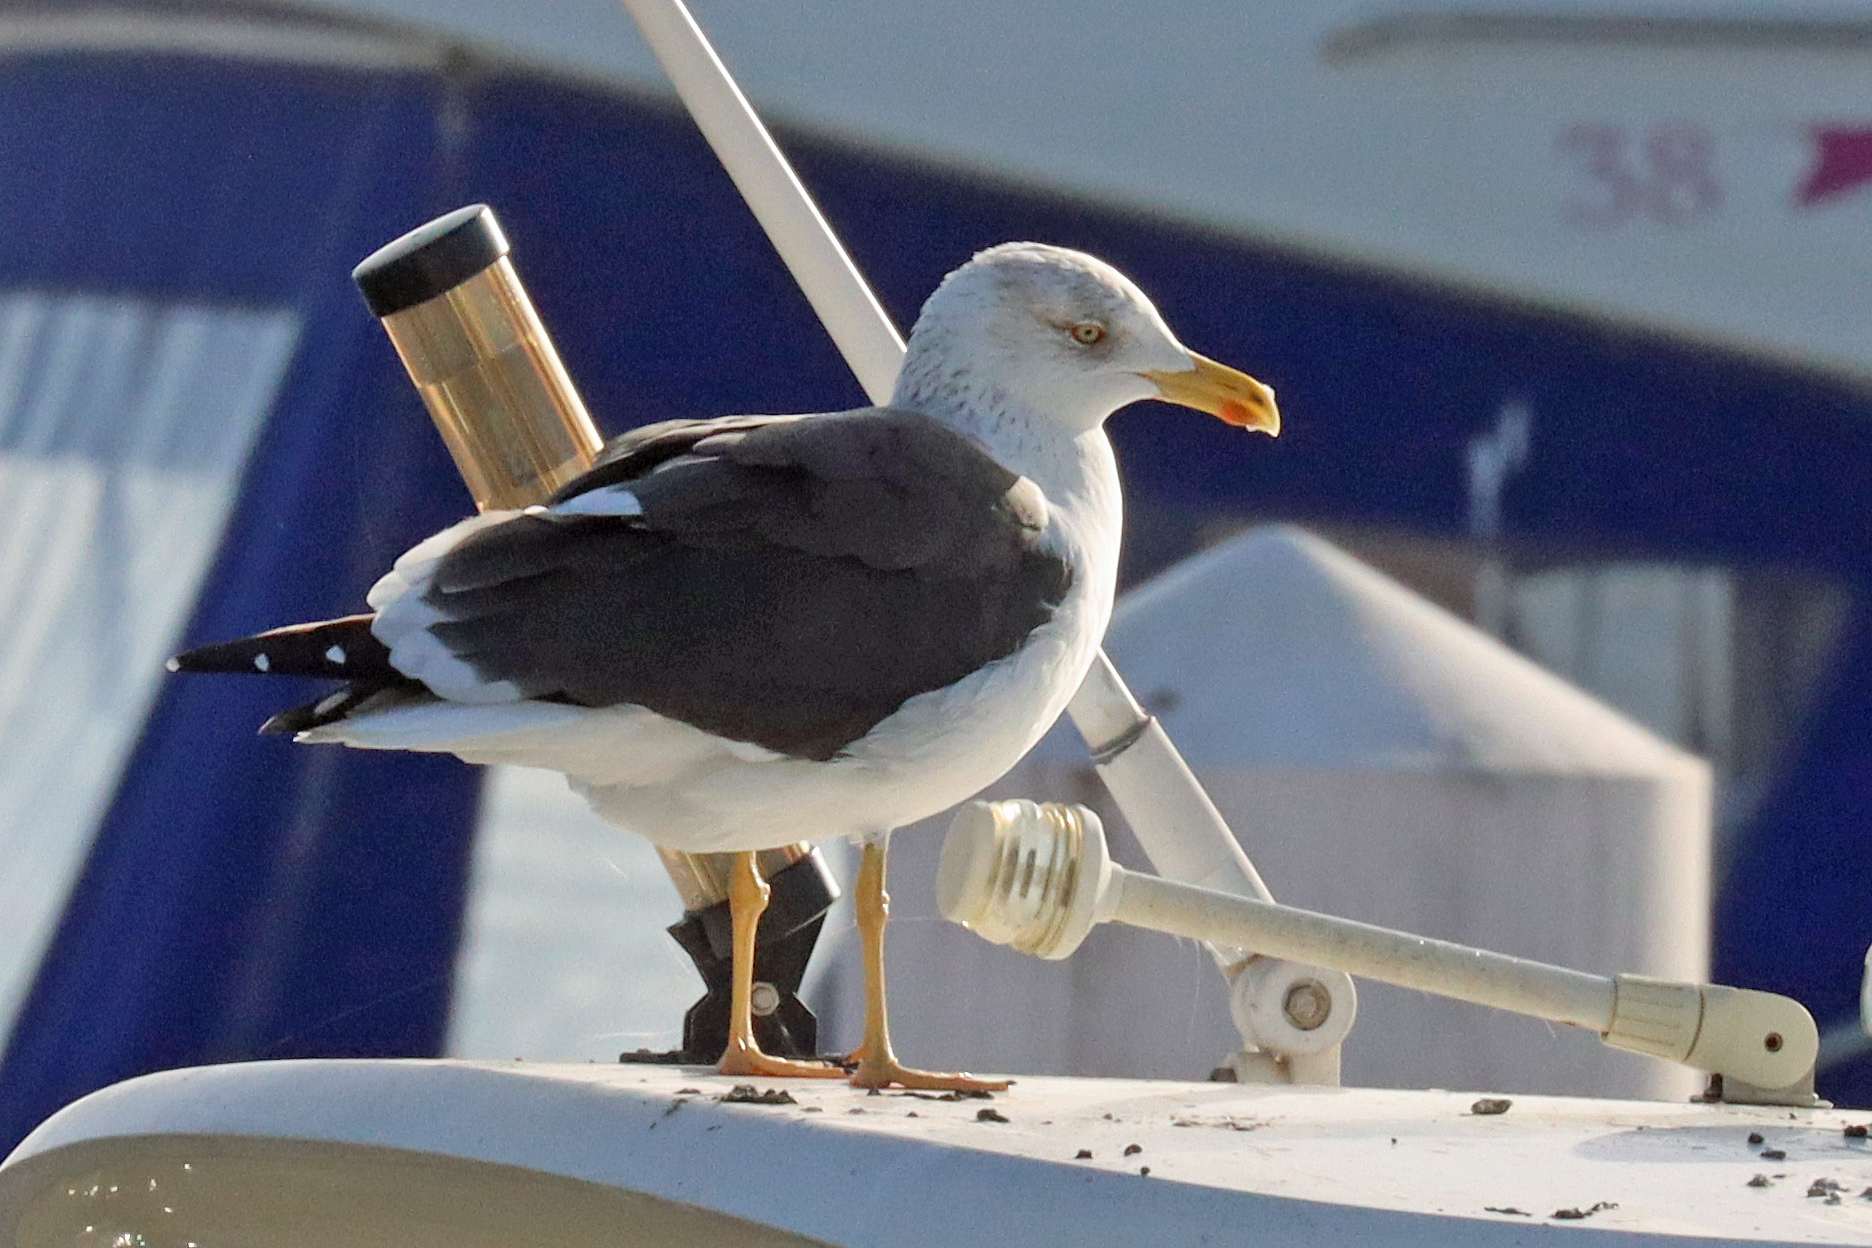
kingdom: Animalia
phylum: Chordata
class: Aves
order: Charadriiformes
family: Laridae
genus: Larus
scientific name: Larus fuscus
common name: Lesser black-backed gull
